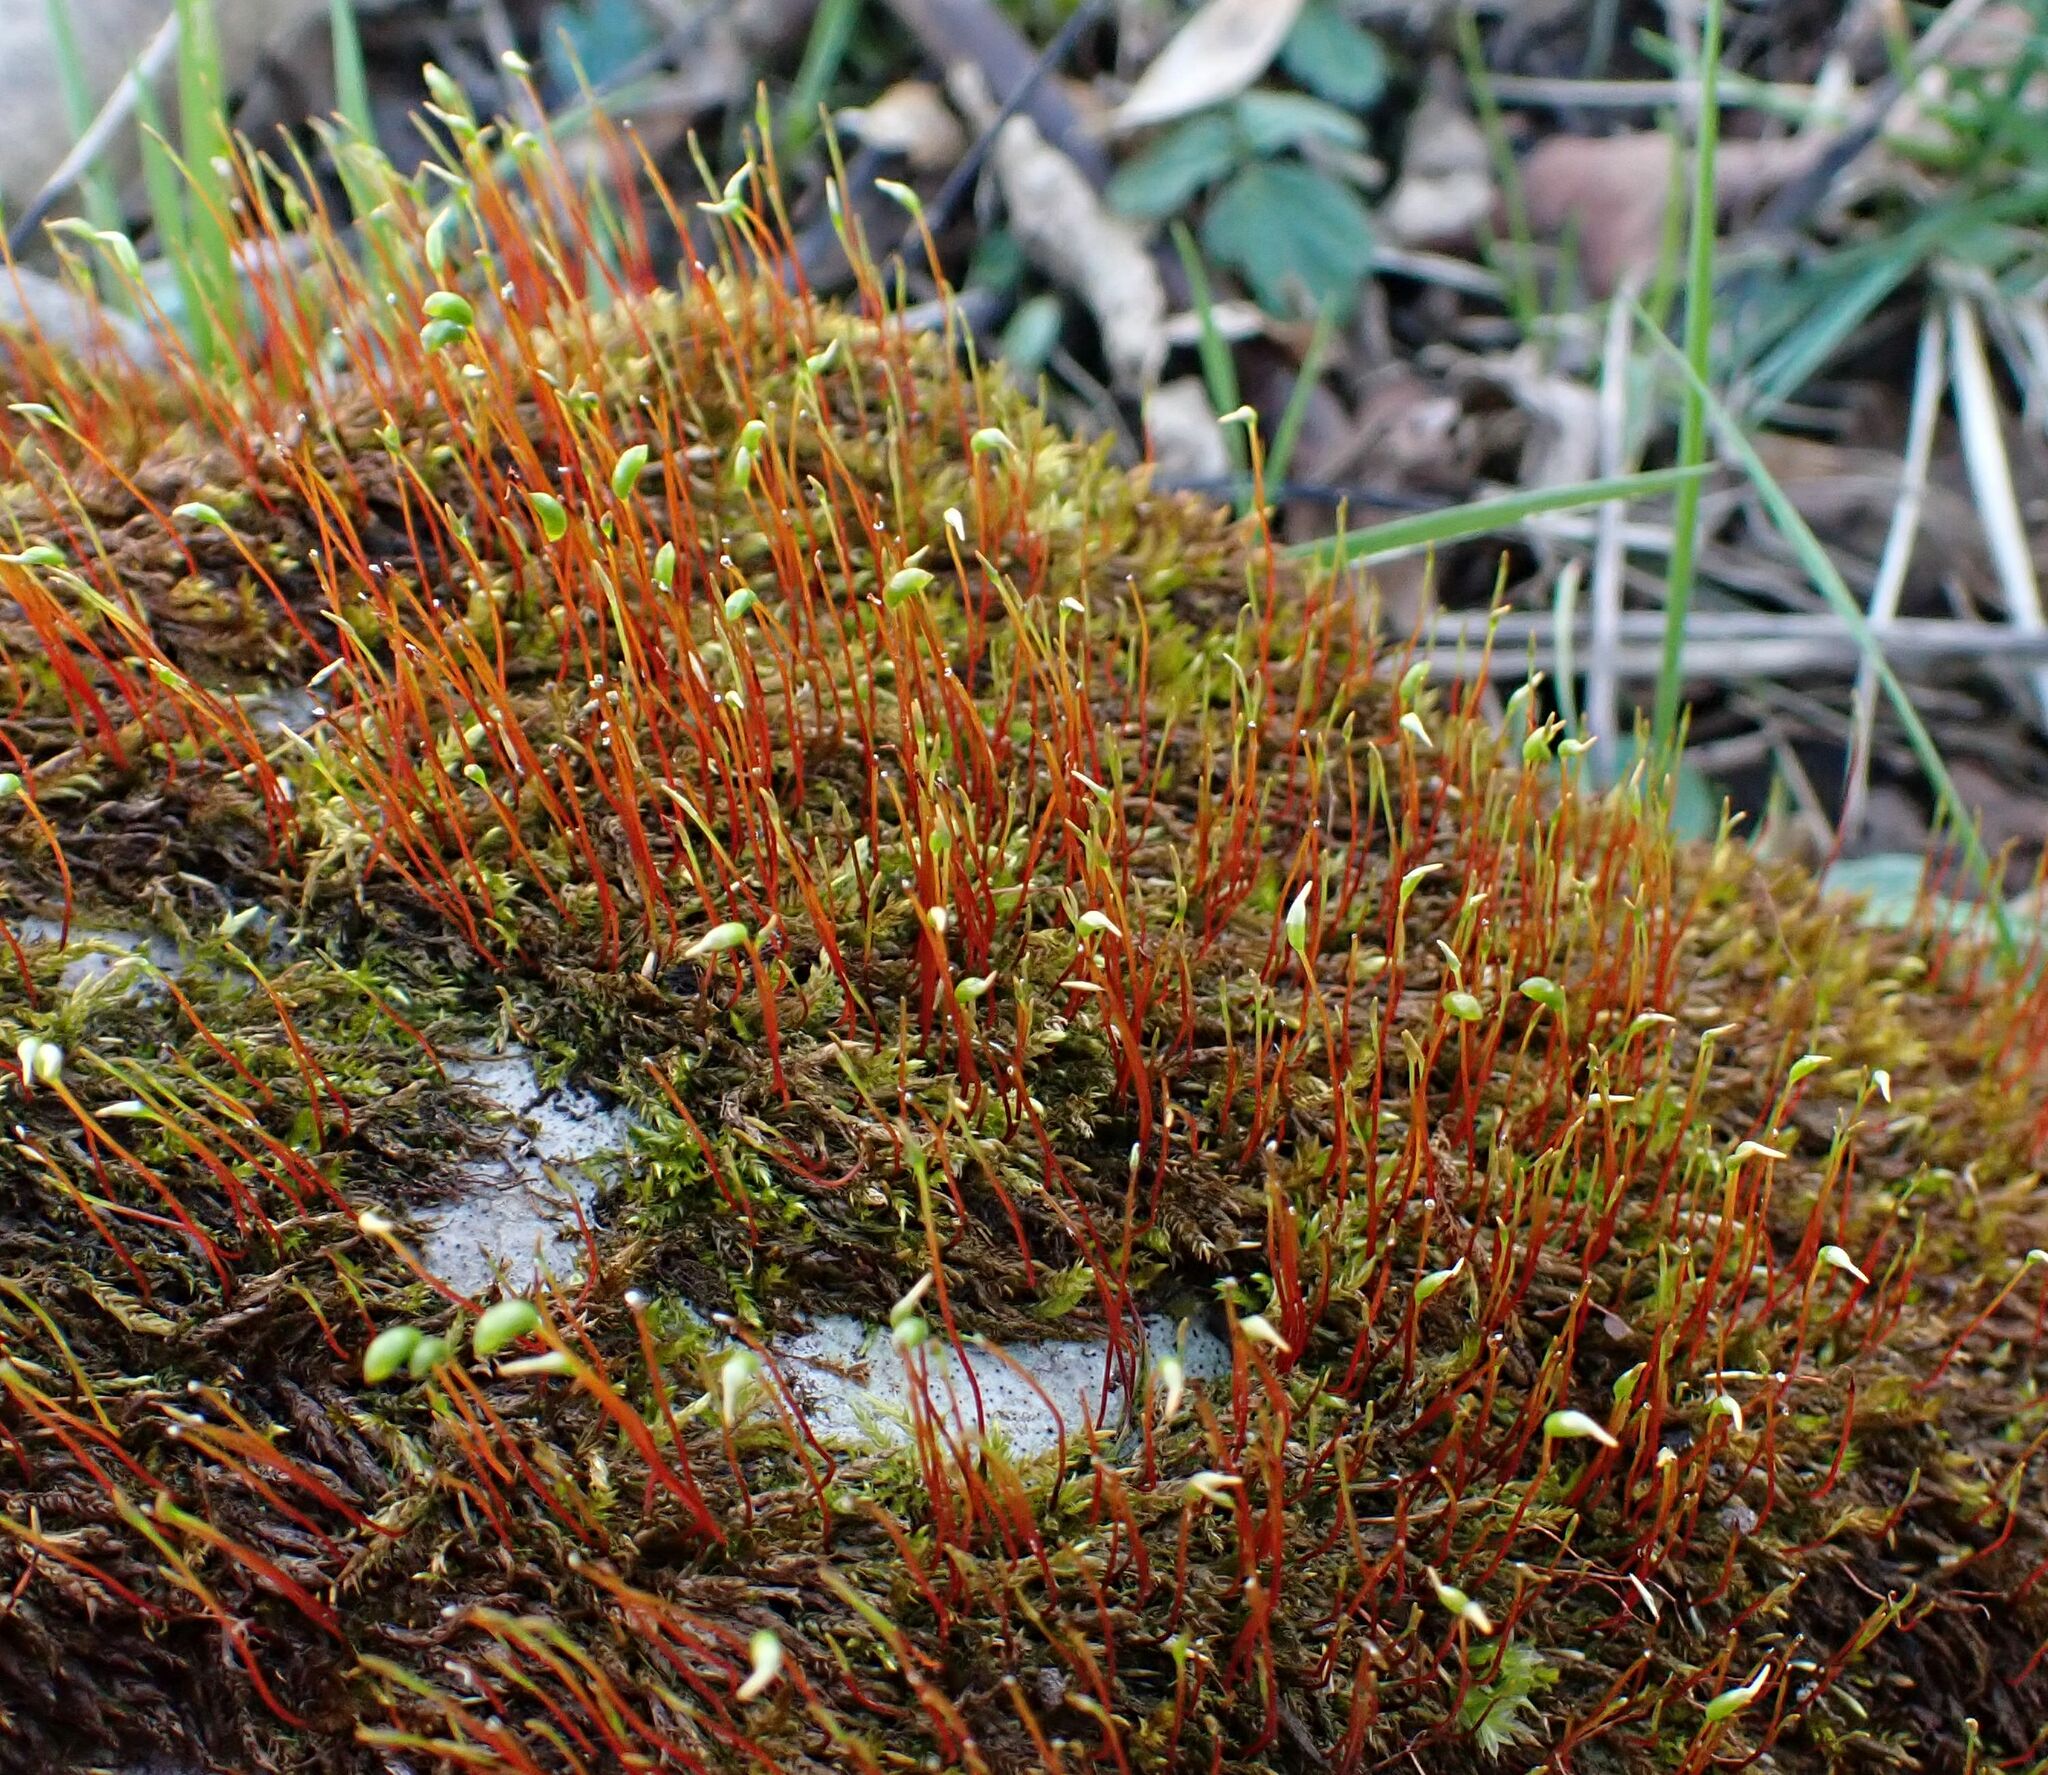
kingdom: Plantae
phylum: Bryophyta
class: Bryopsida
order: Hypnales
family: Amblystegiaceae
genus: Hygrohypnum
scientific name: Hygrohypnum luridum
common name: Drab brook moss
